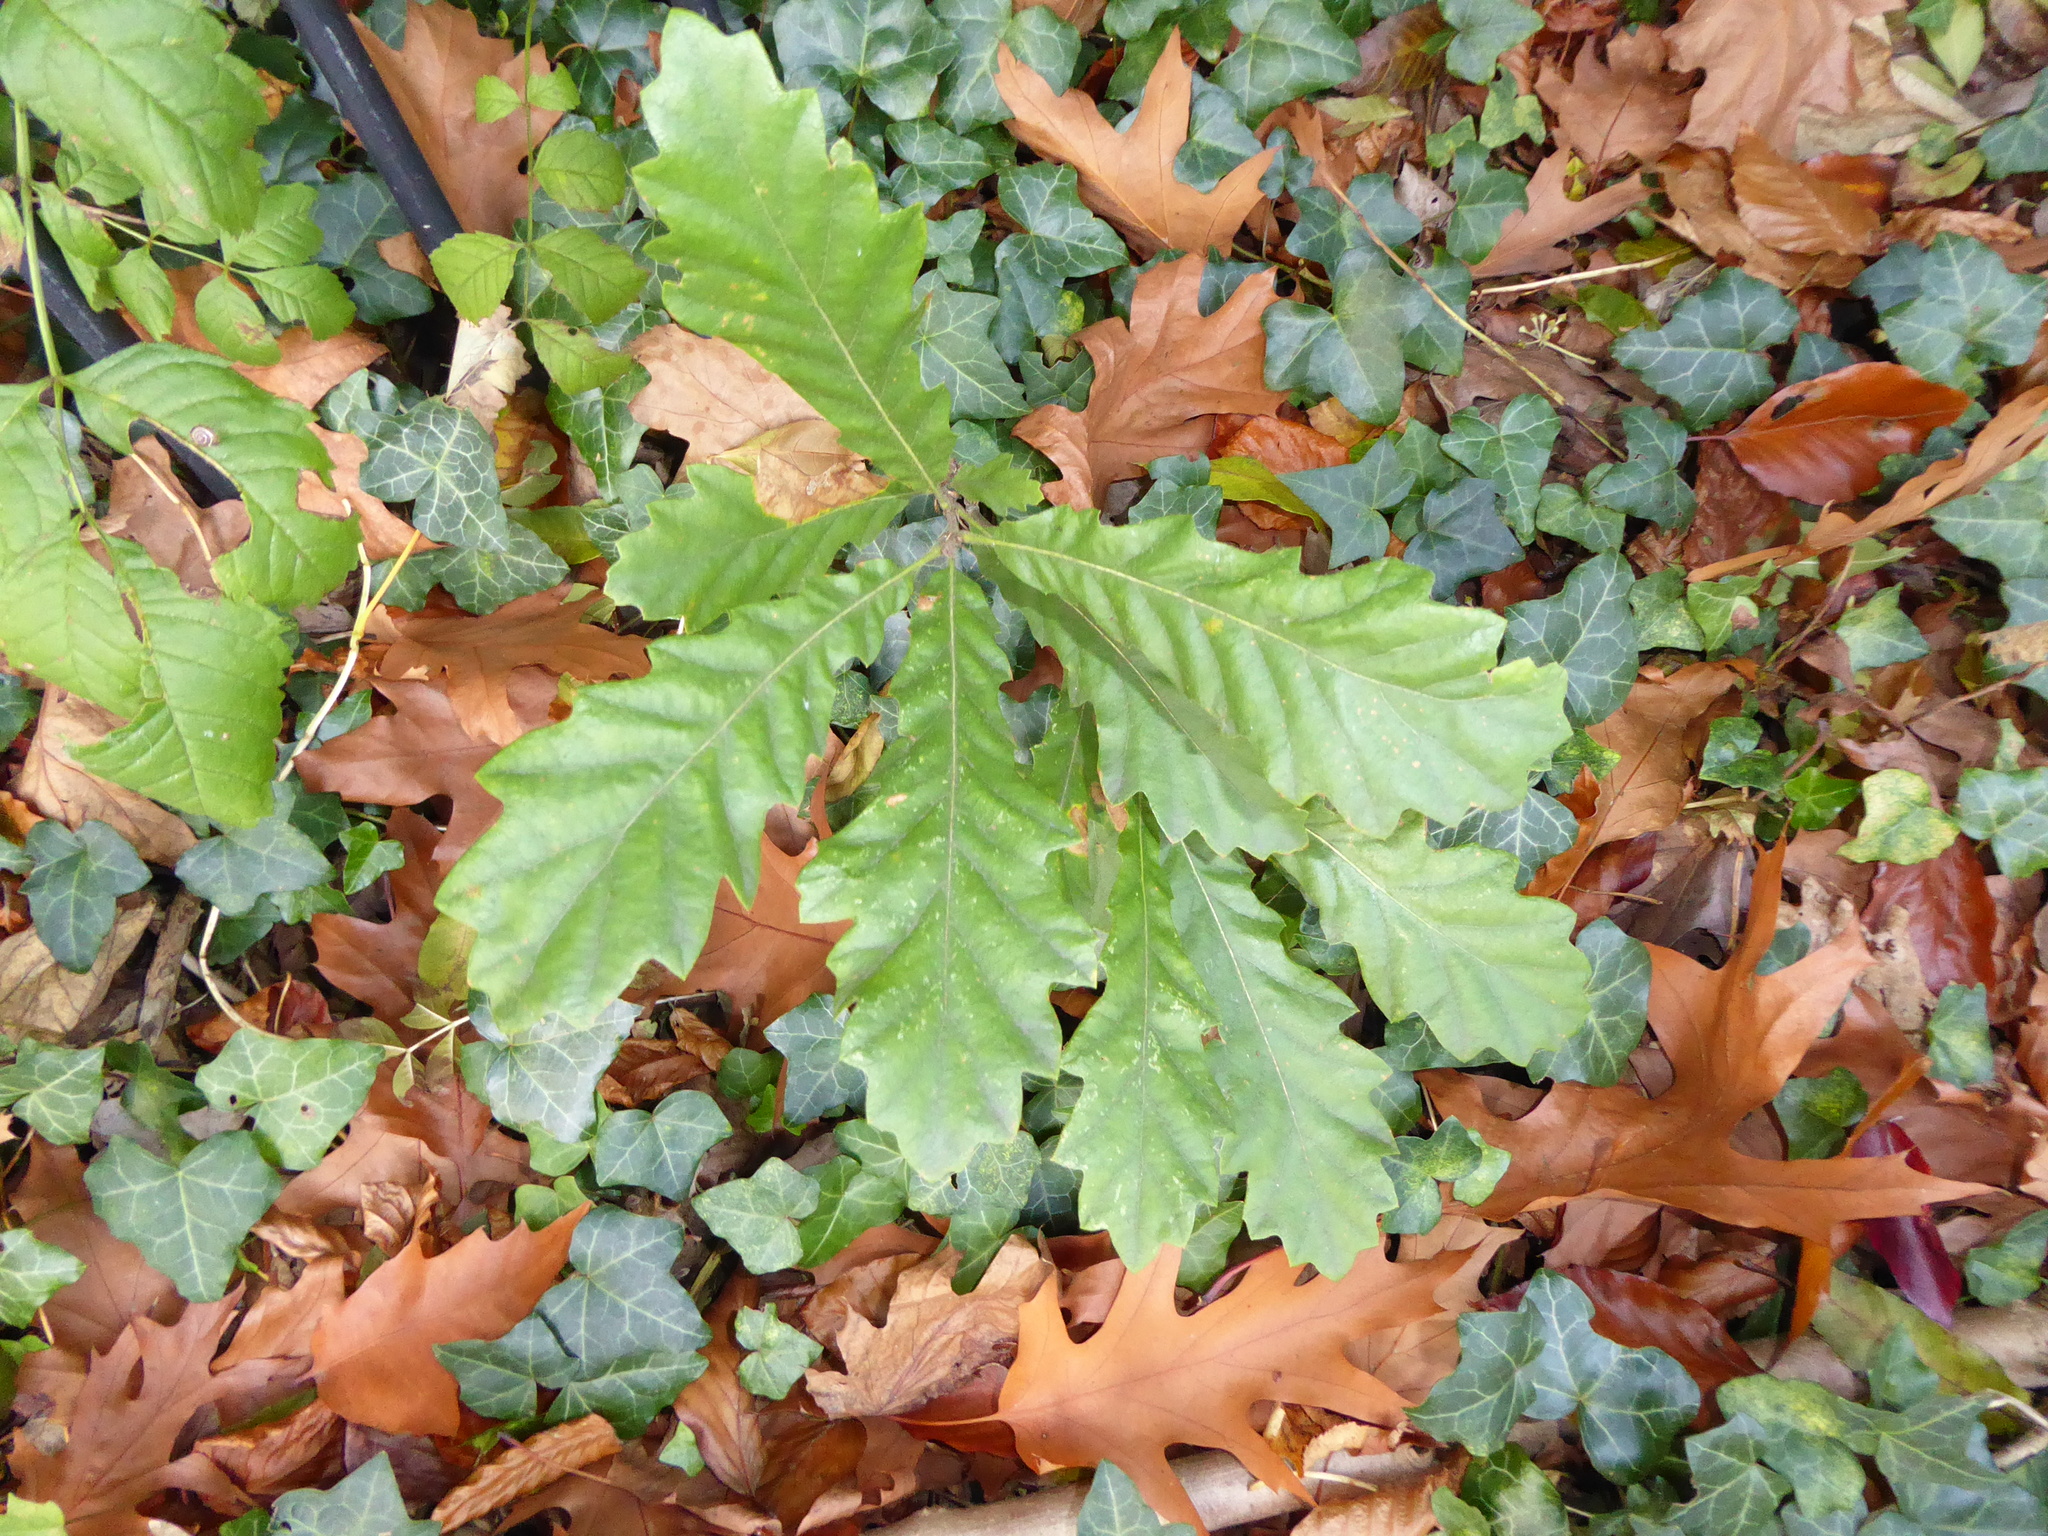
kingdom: Plantae
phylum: Tracheophyta
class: Magnoliopsida
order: Fagales
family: Fagaceae
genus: Quercus
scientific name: Quercus cerris
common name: Turkey oak
